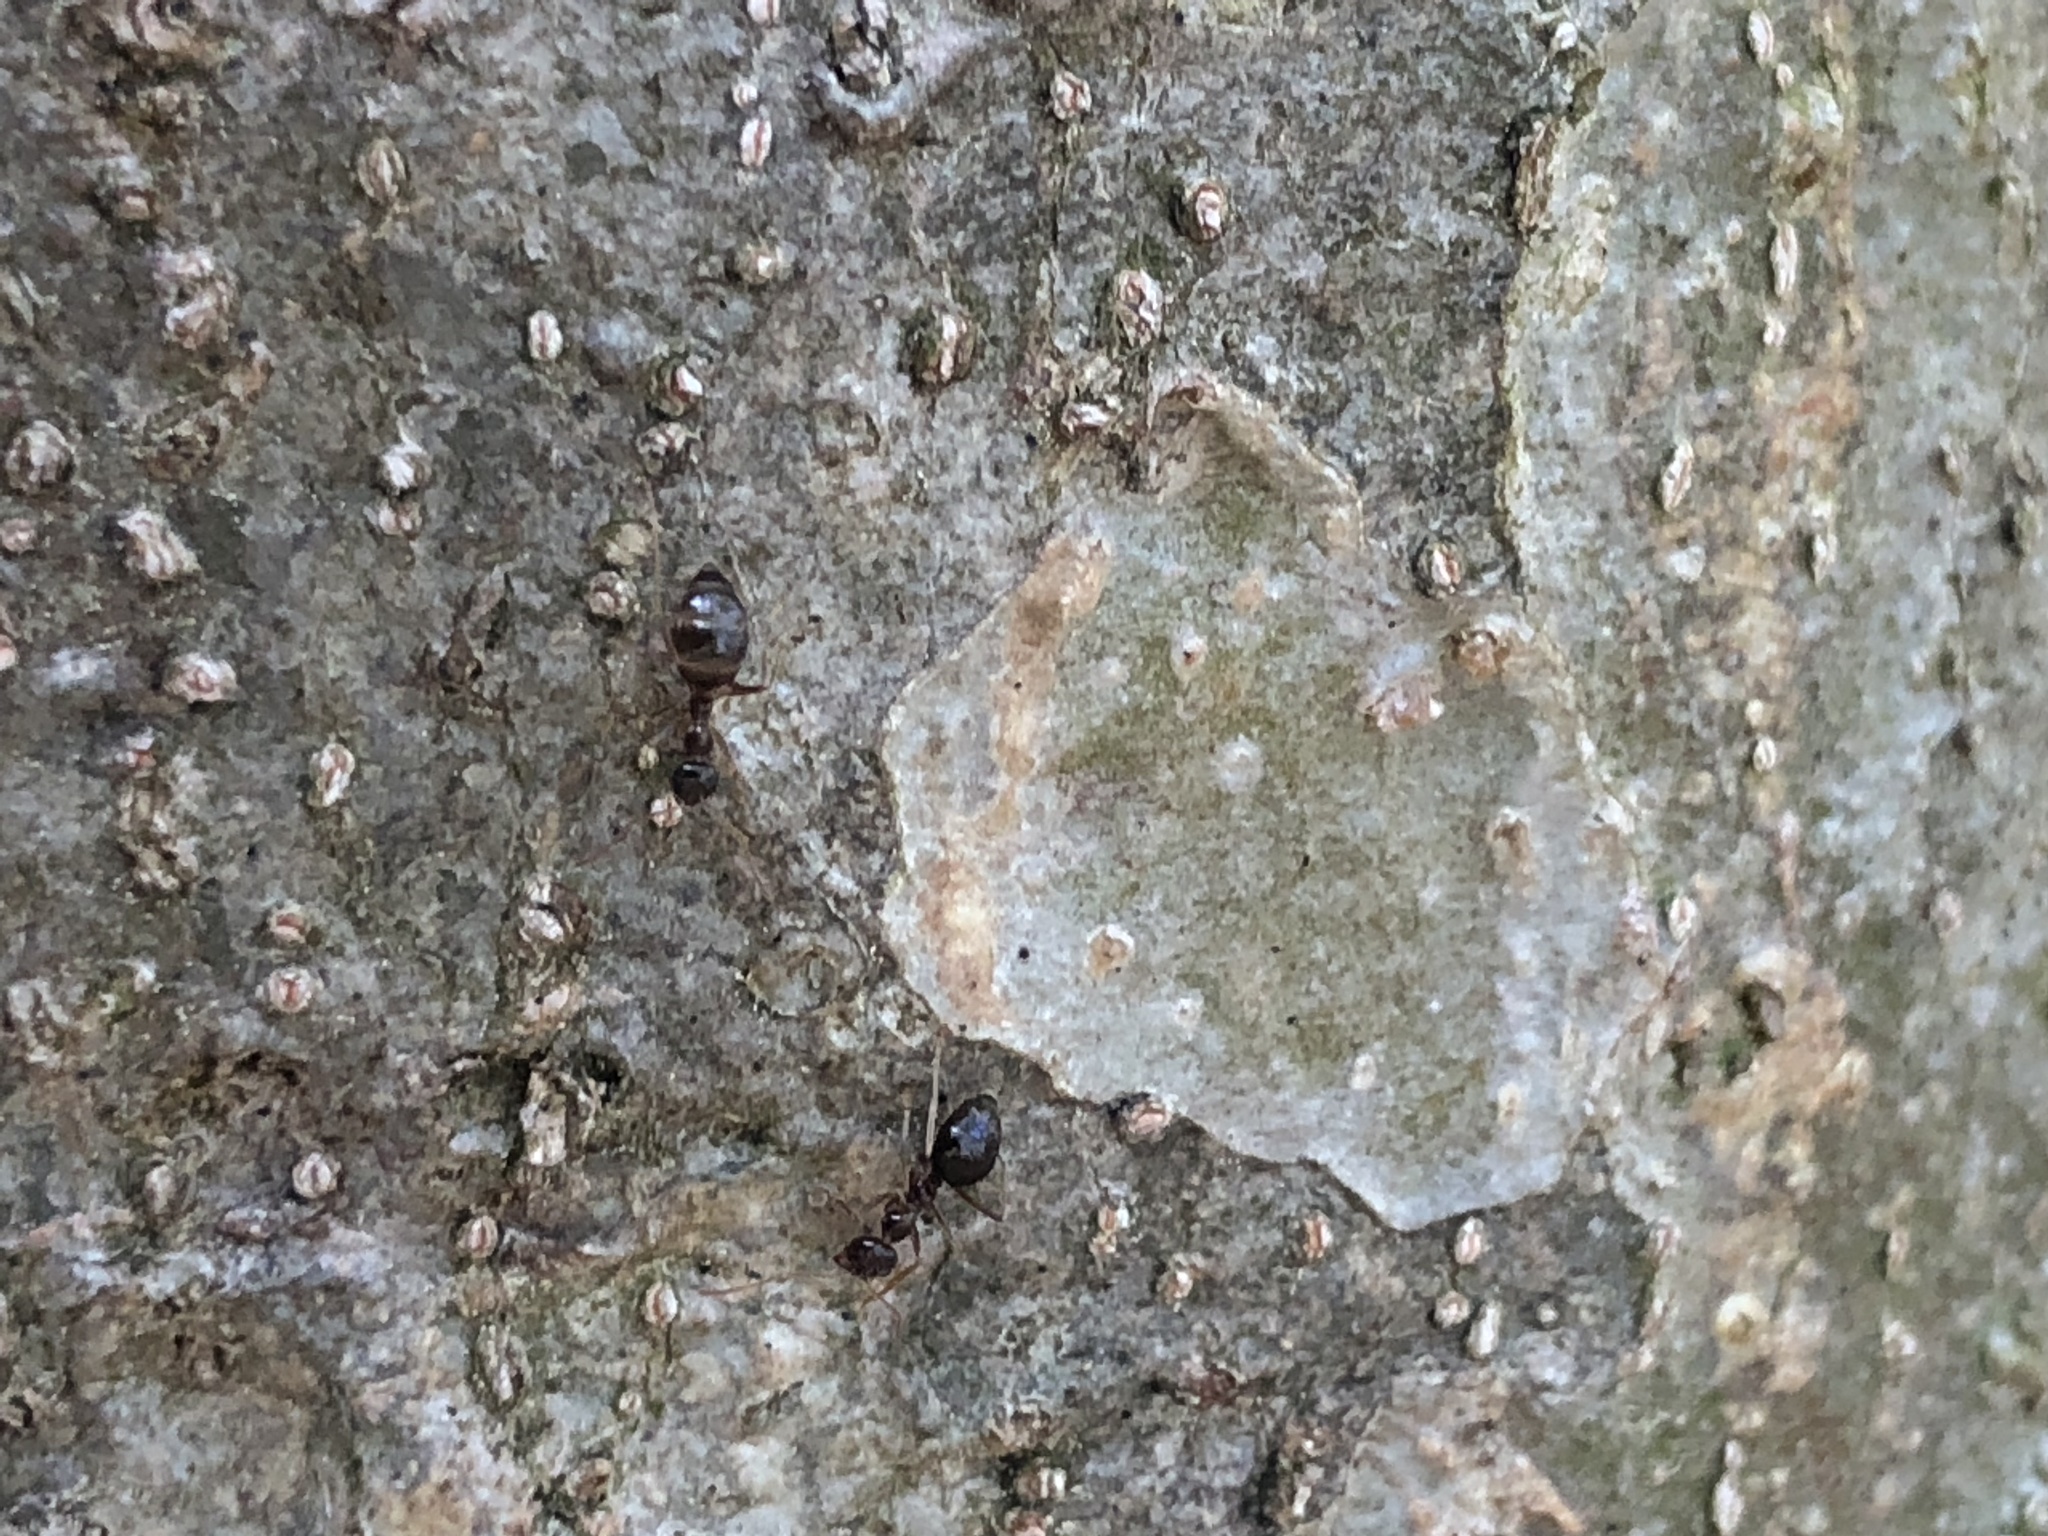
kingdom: Animalia
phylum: Arthropoda
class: Insecta
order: Hymenoptera
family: Formicidae
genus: Prenolepis
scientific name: Prenolepis imparis
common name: Small honey ant
